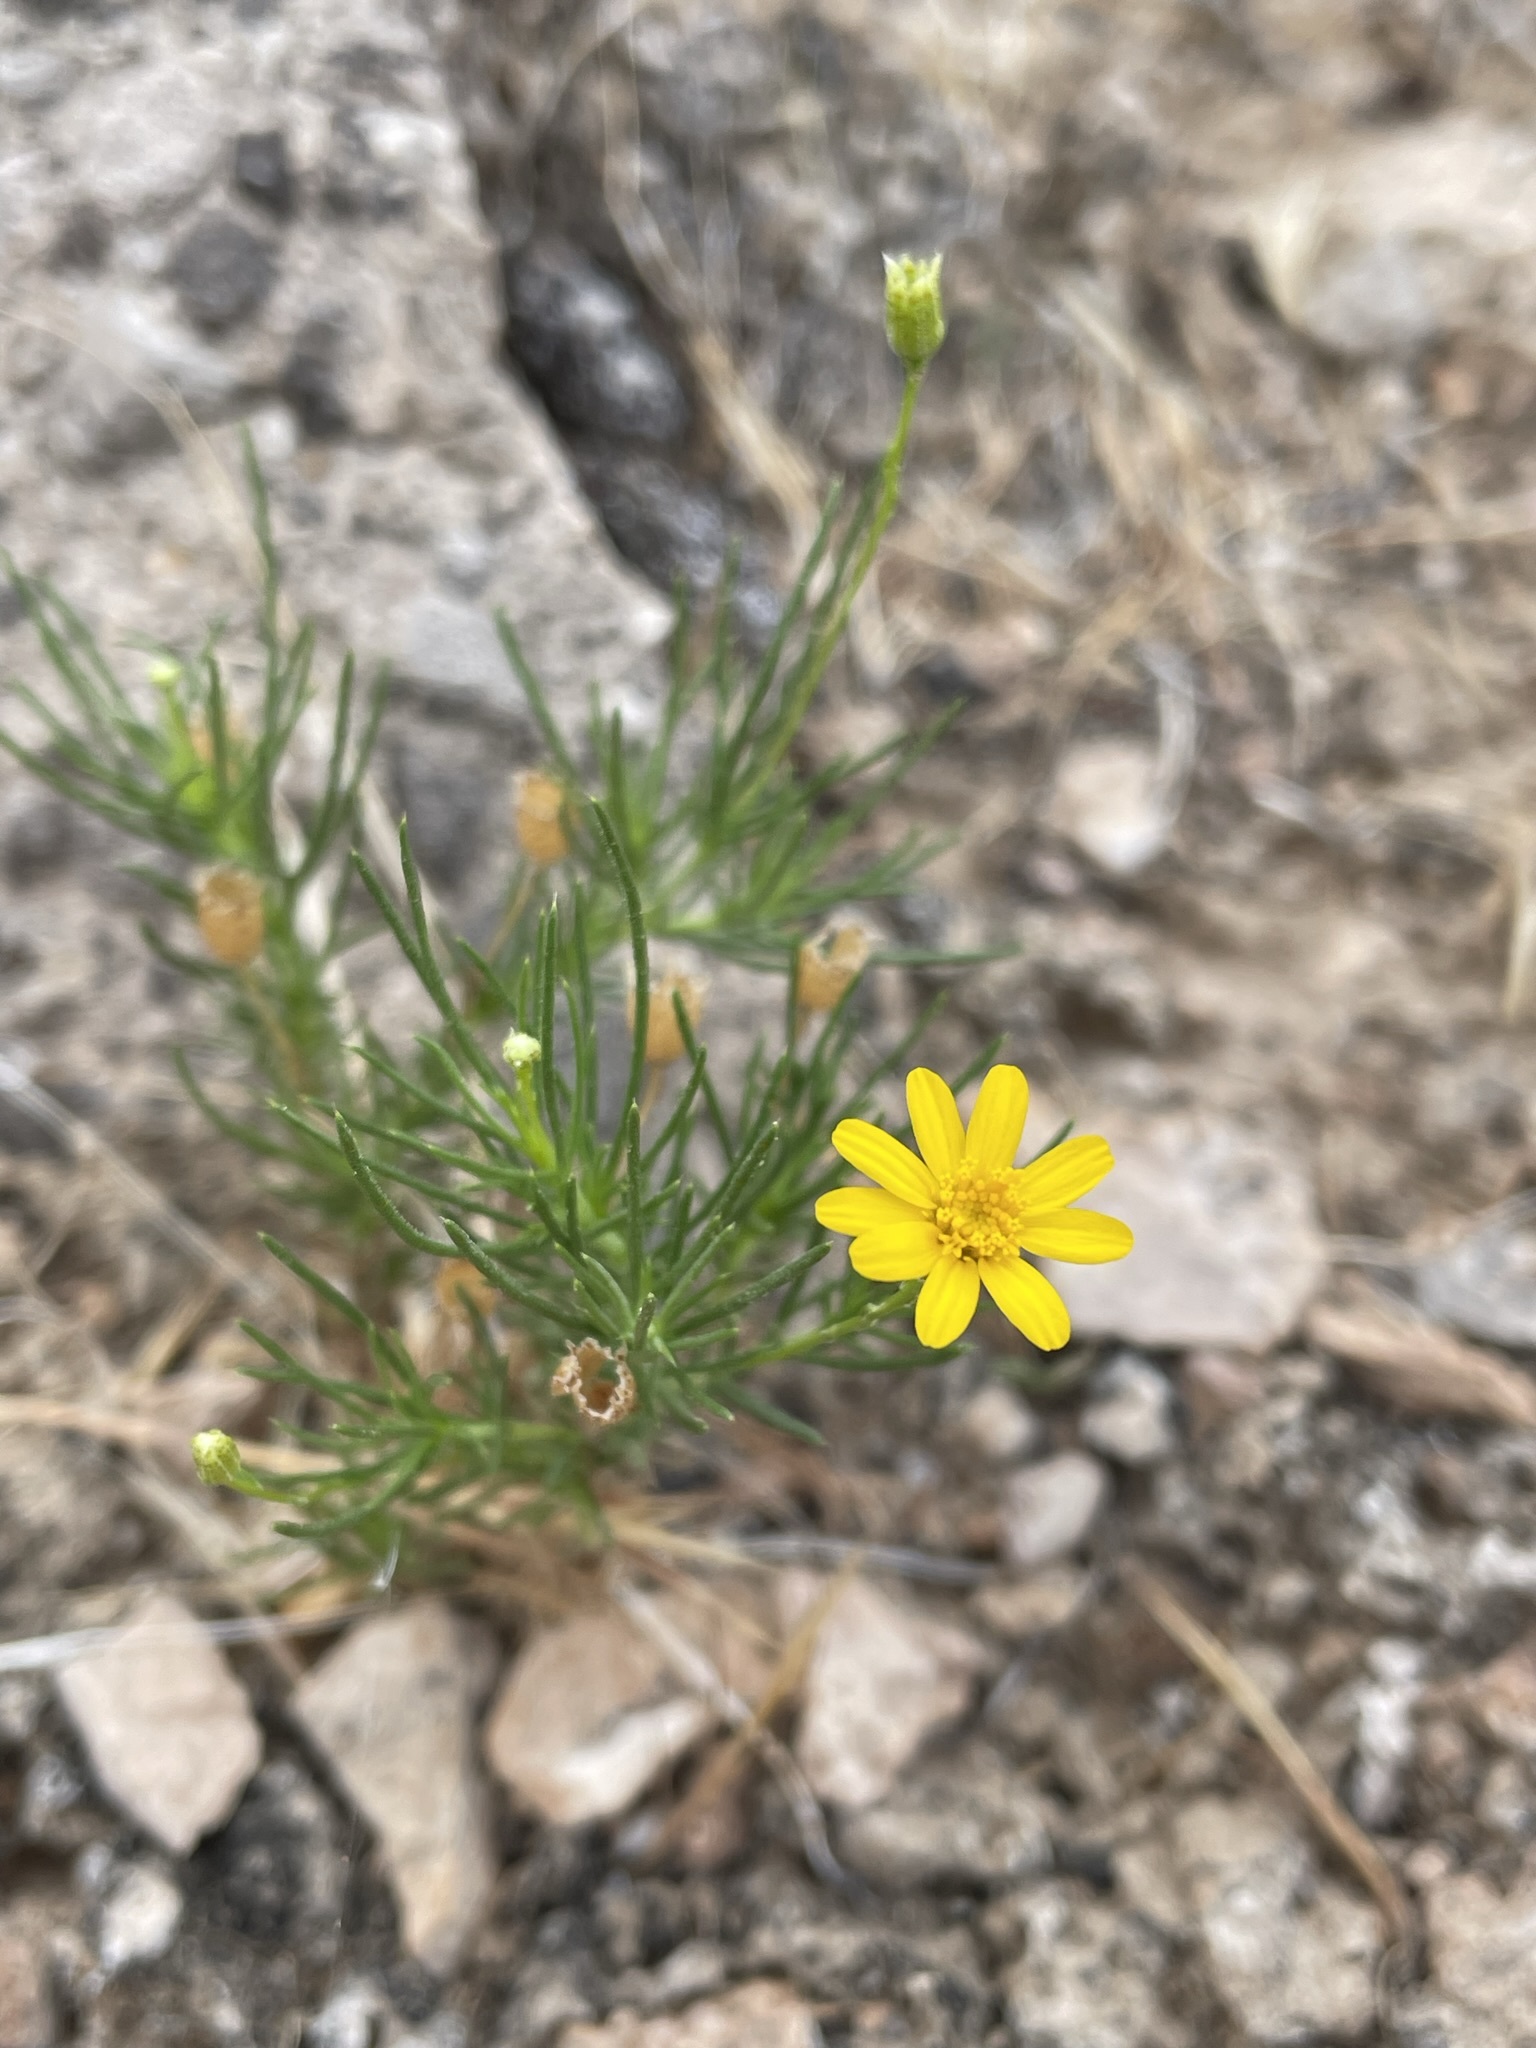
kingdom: Plantae
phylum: Tracheophyta
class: Magnoliopsida
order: Asterales
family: Asteraceae
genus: Thymophylla
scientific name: Thymophylla pentachaeta
